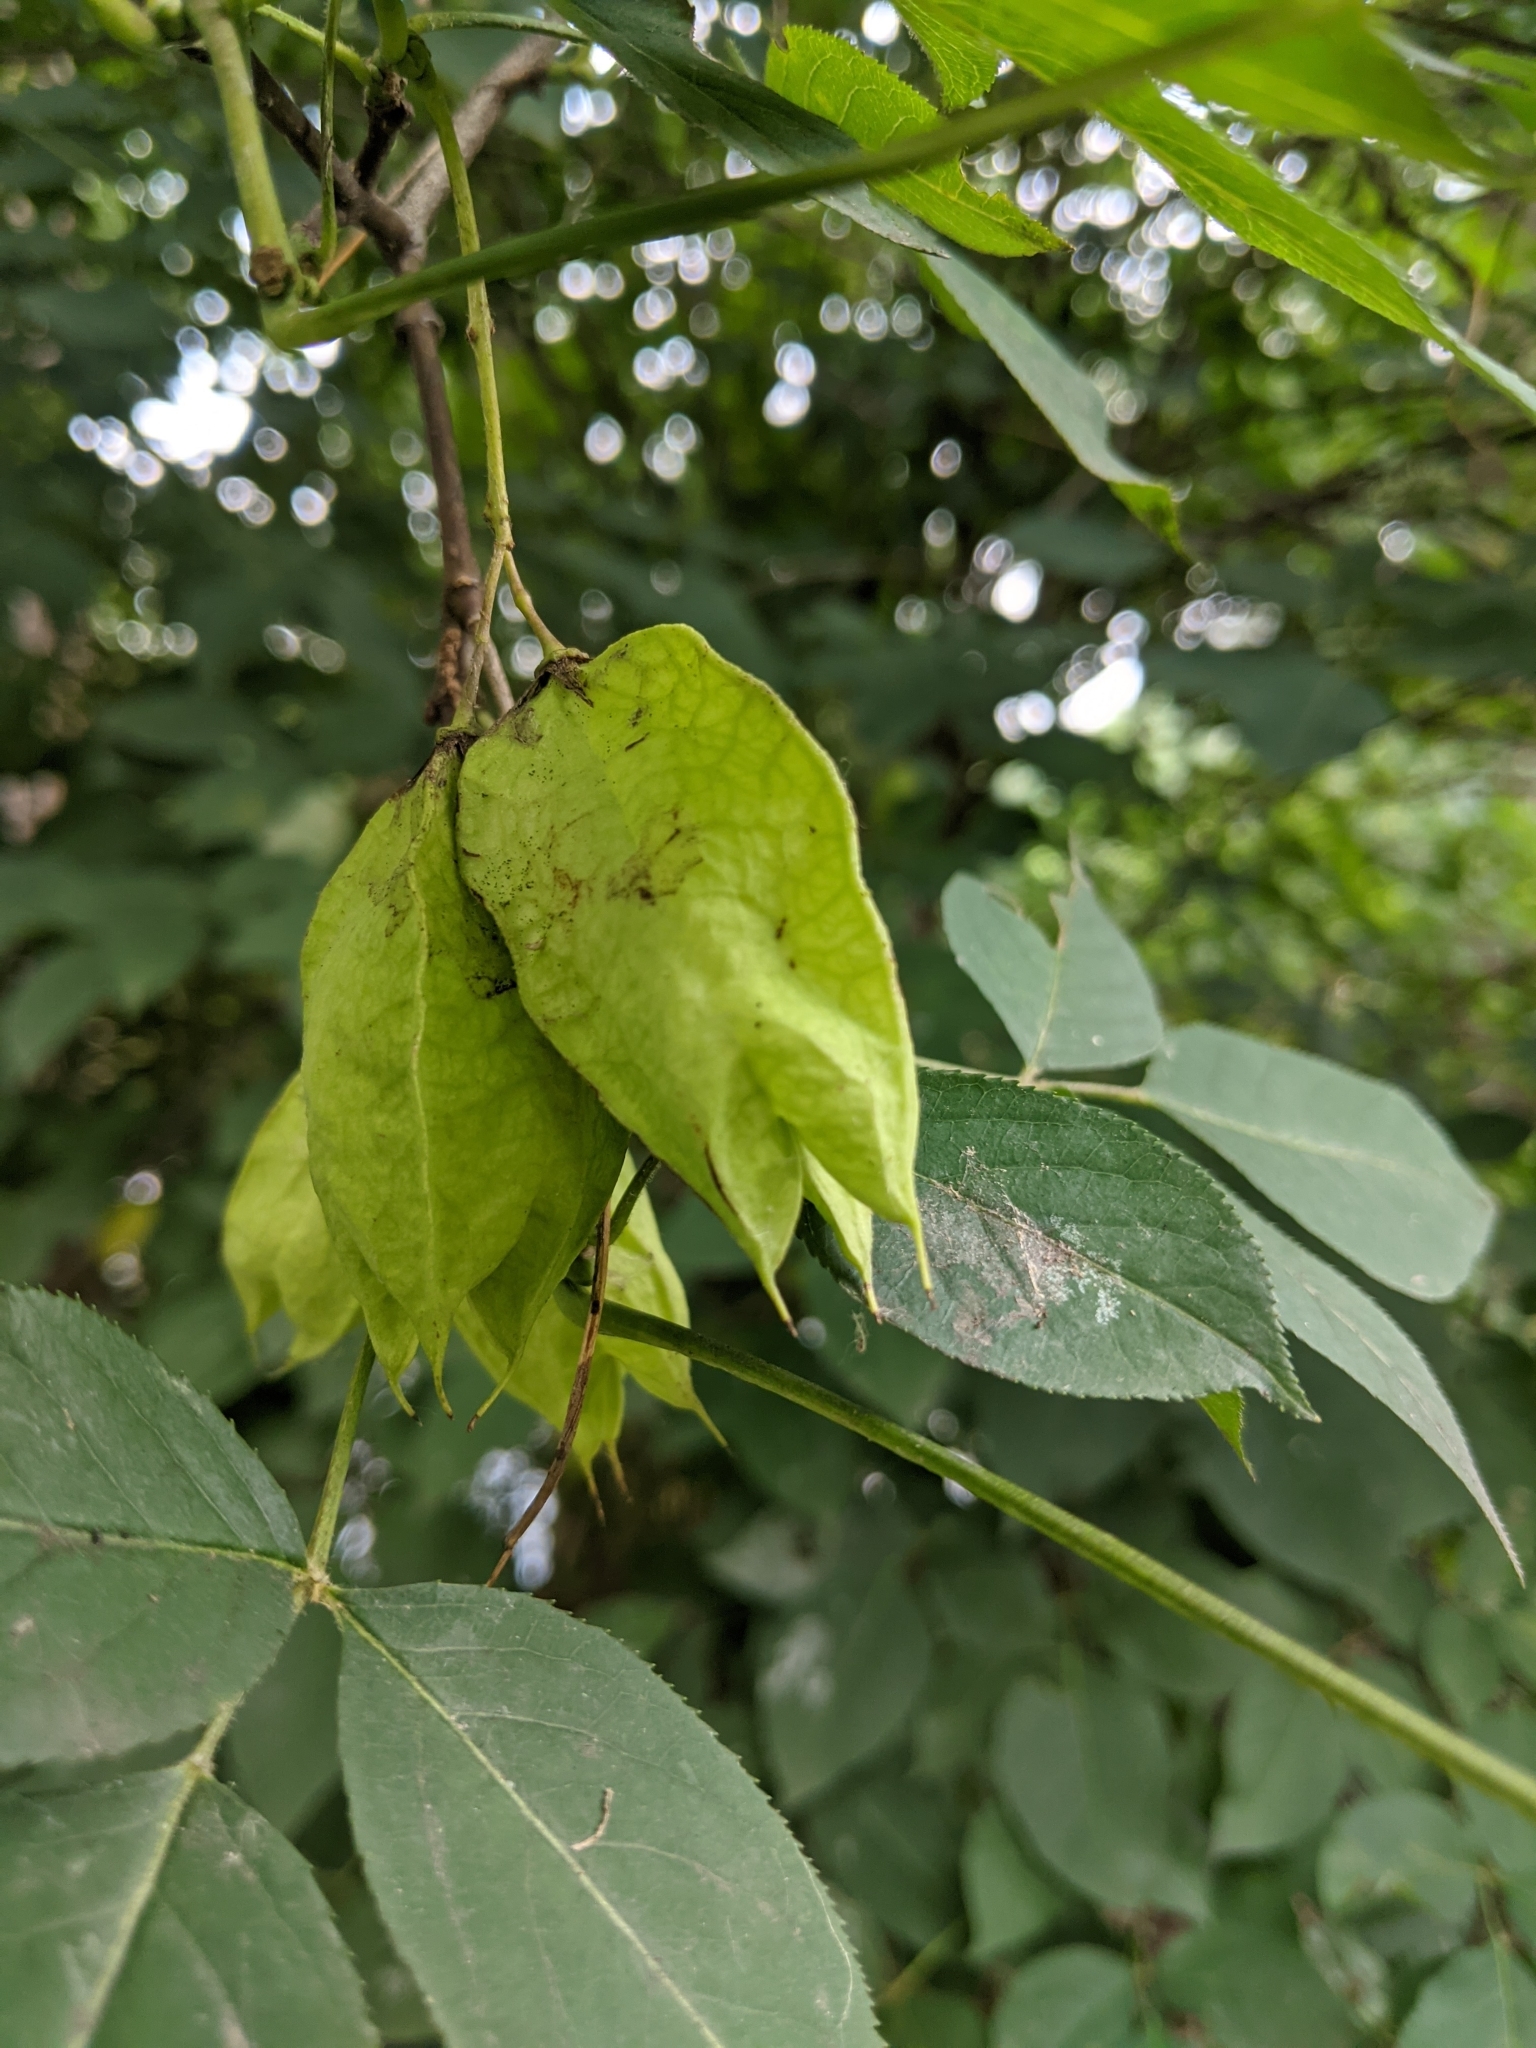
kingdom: Plantae
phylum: Tracheophyta
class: Magnoliopsida
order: Crossosomatales
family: Staphyleaceae
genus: Staphylea
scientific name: Staphylea trifolia
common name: American bladdernut
